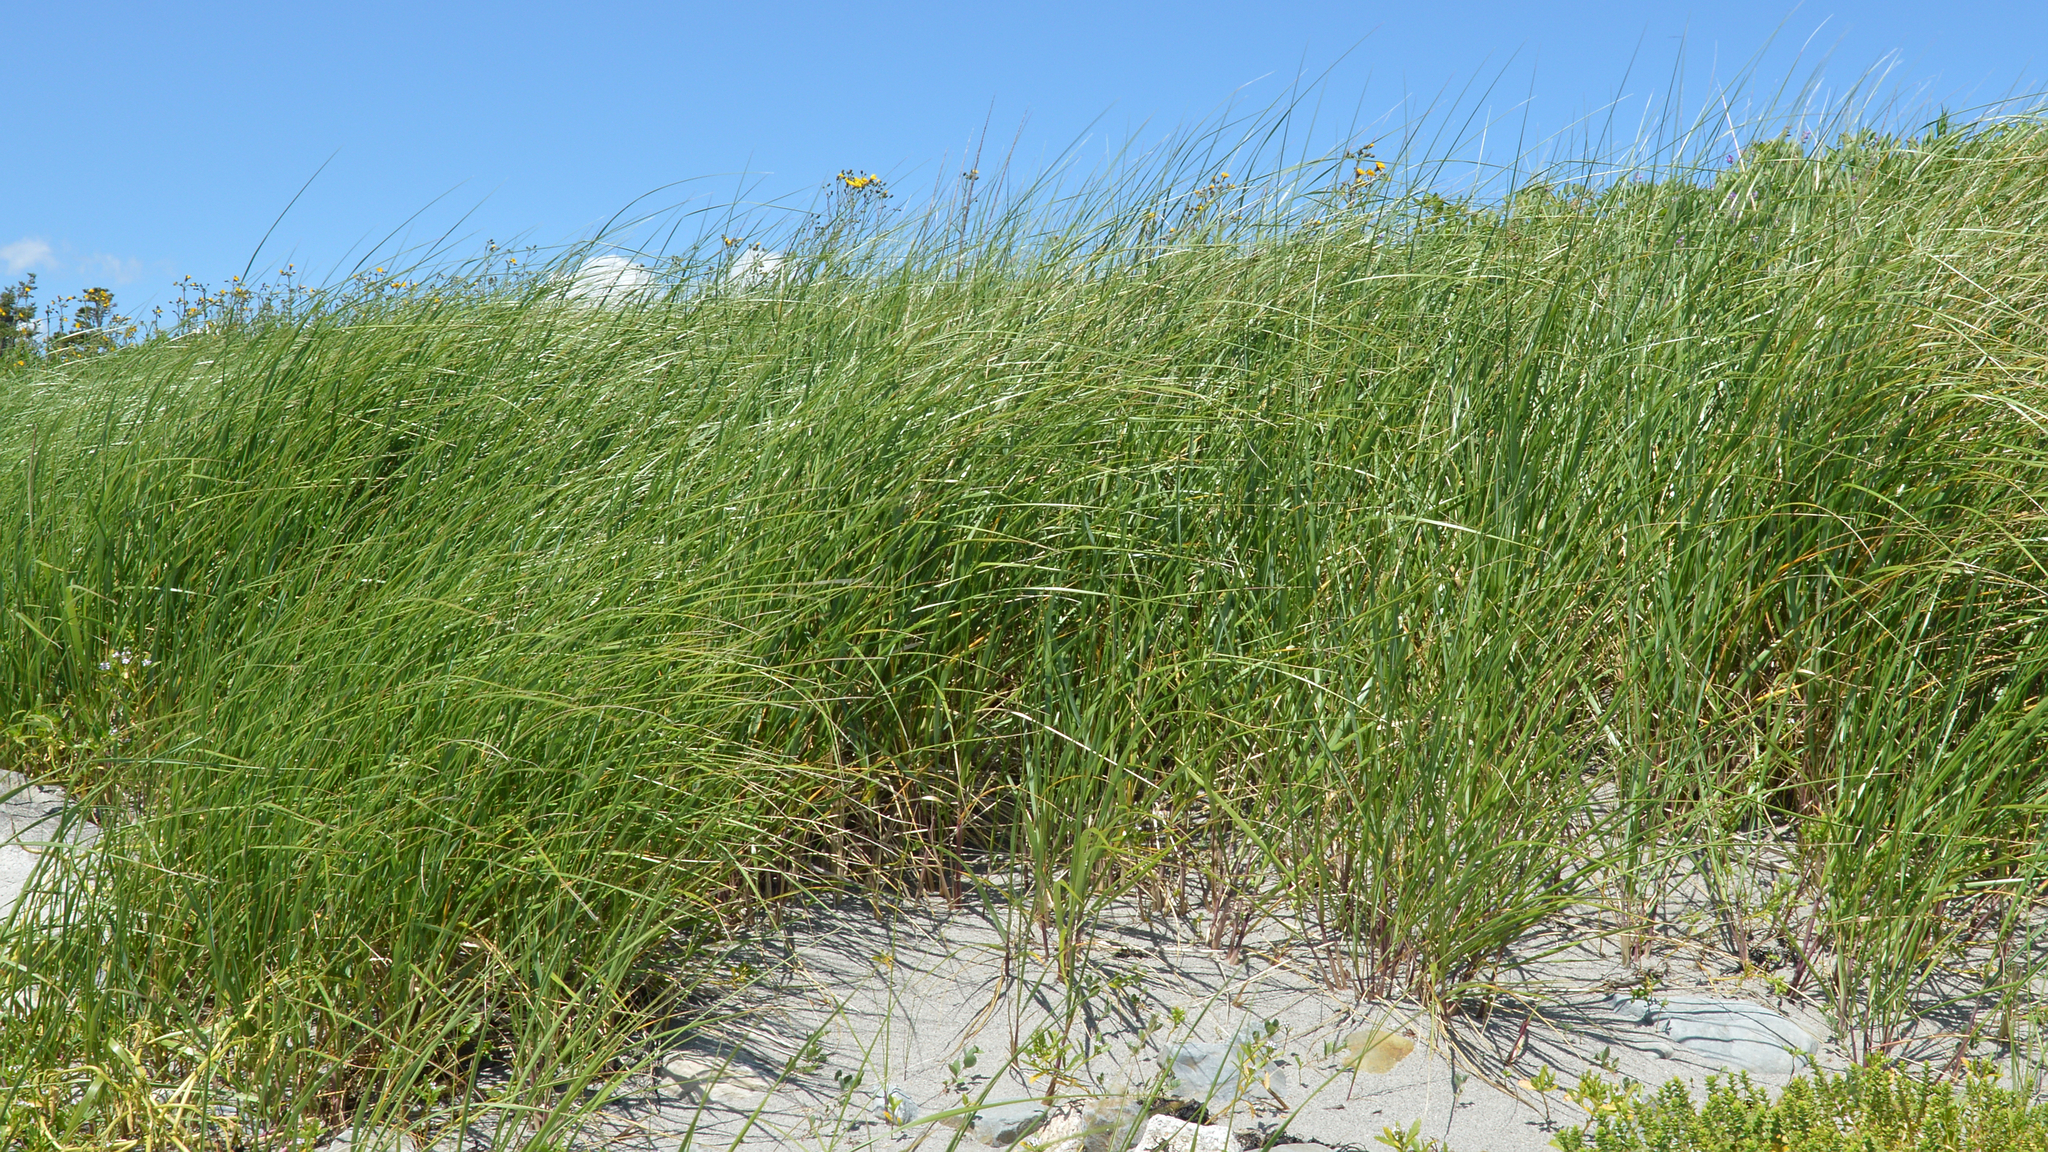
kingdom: Plantae
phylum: Tracheophyta
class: Liliopsida
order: Poales
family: Poaceae
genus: Calamagrostis
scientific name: Calamagrostis breviligulata
